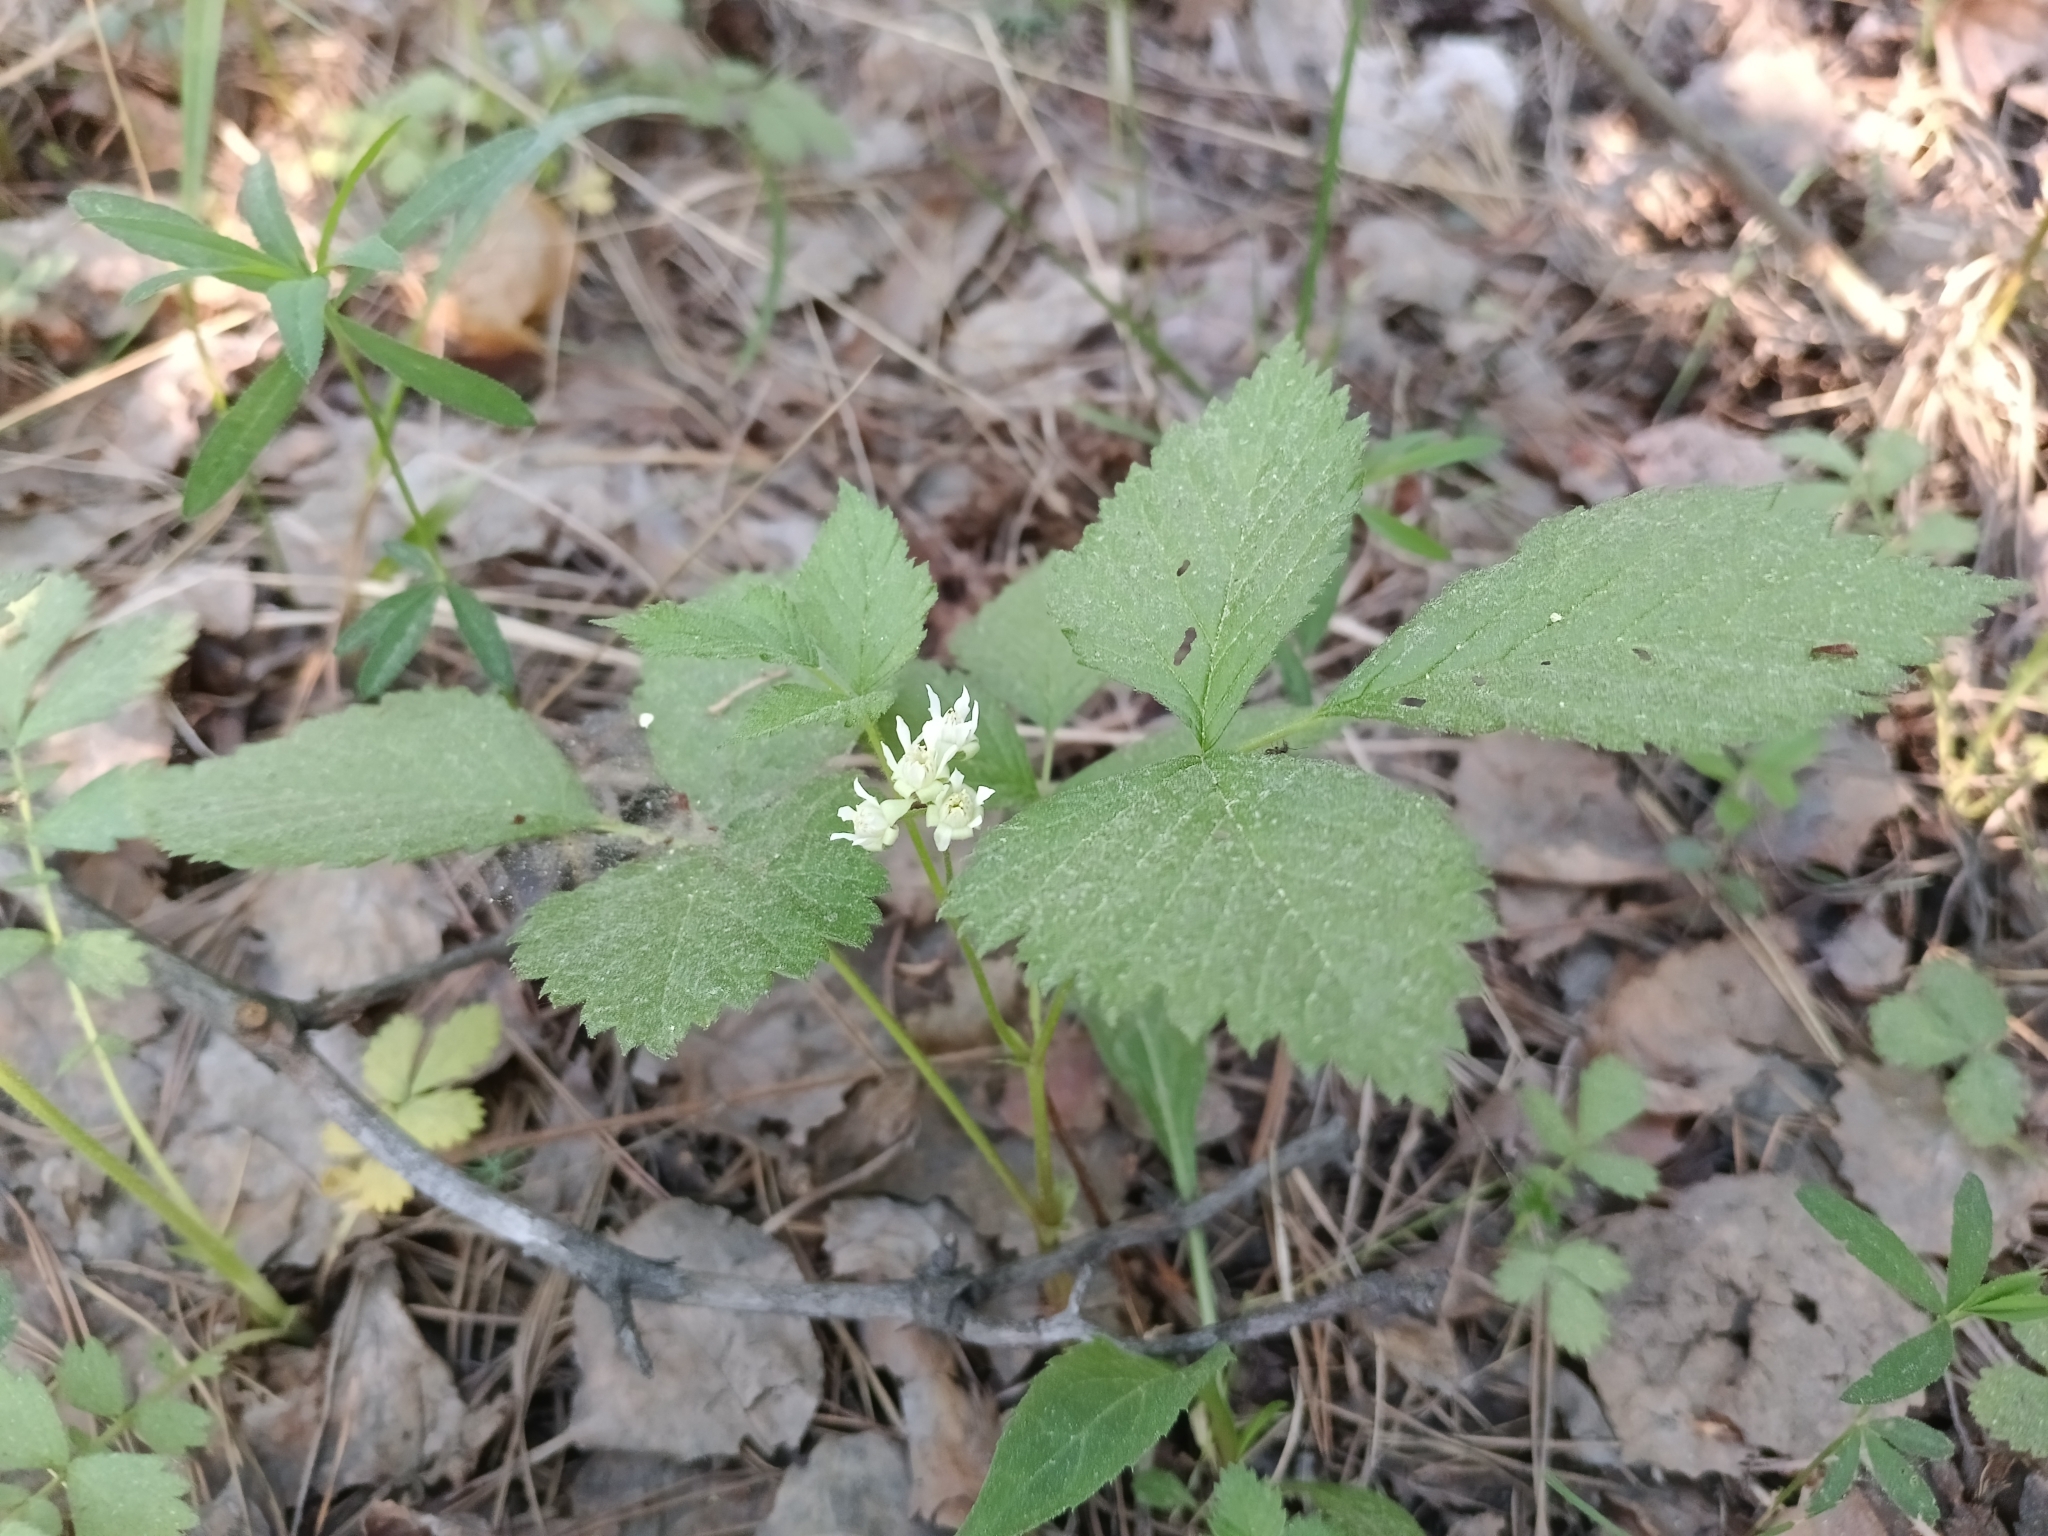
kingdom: Plantae
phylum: Tracheophyta
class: Magnoliopsida
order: Rosales
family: Rosaceae
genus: Rubus
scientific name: Rubus saxatilis
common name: Stone bramble
